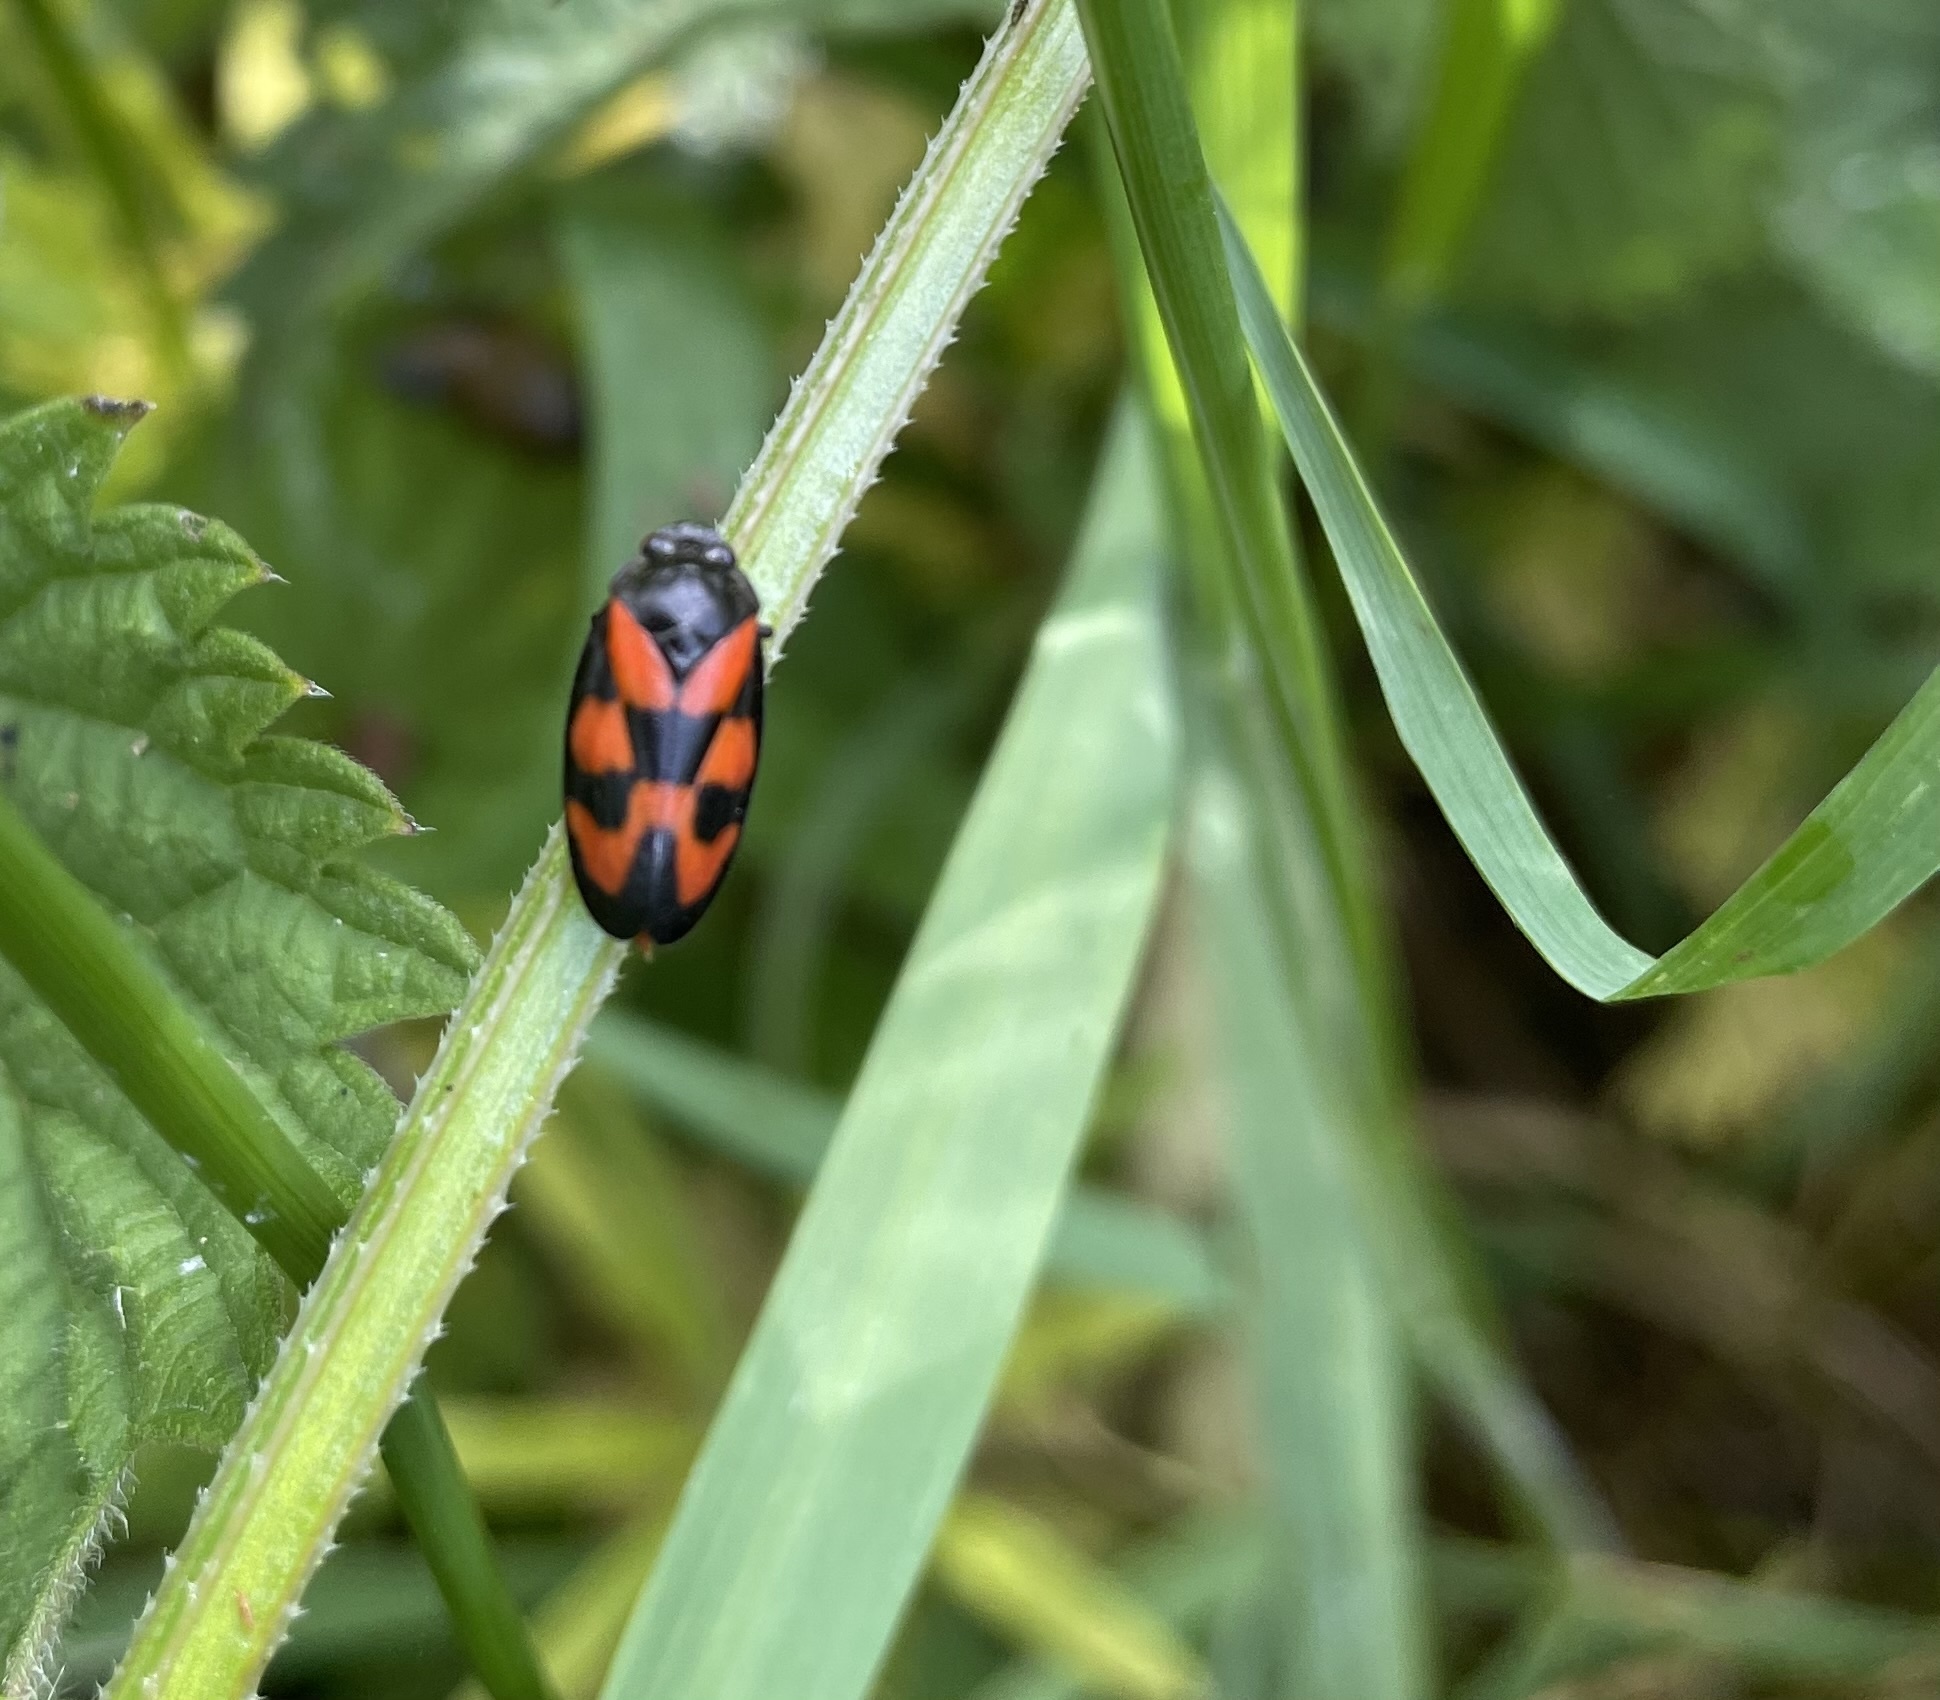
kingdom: Animalia
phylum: Arthropoda
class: Insecta
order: Hemiptera
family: Cercopidae
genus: Cercopis
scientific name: Cercopis vulnerata
